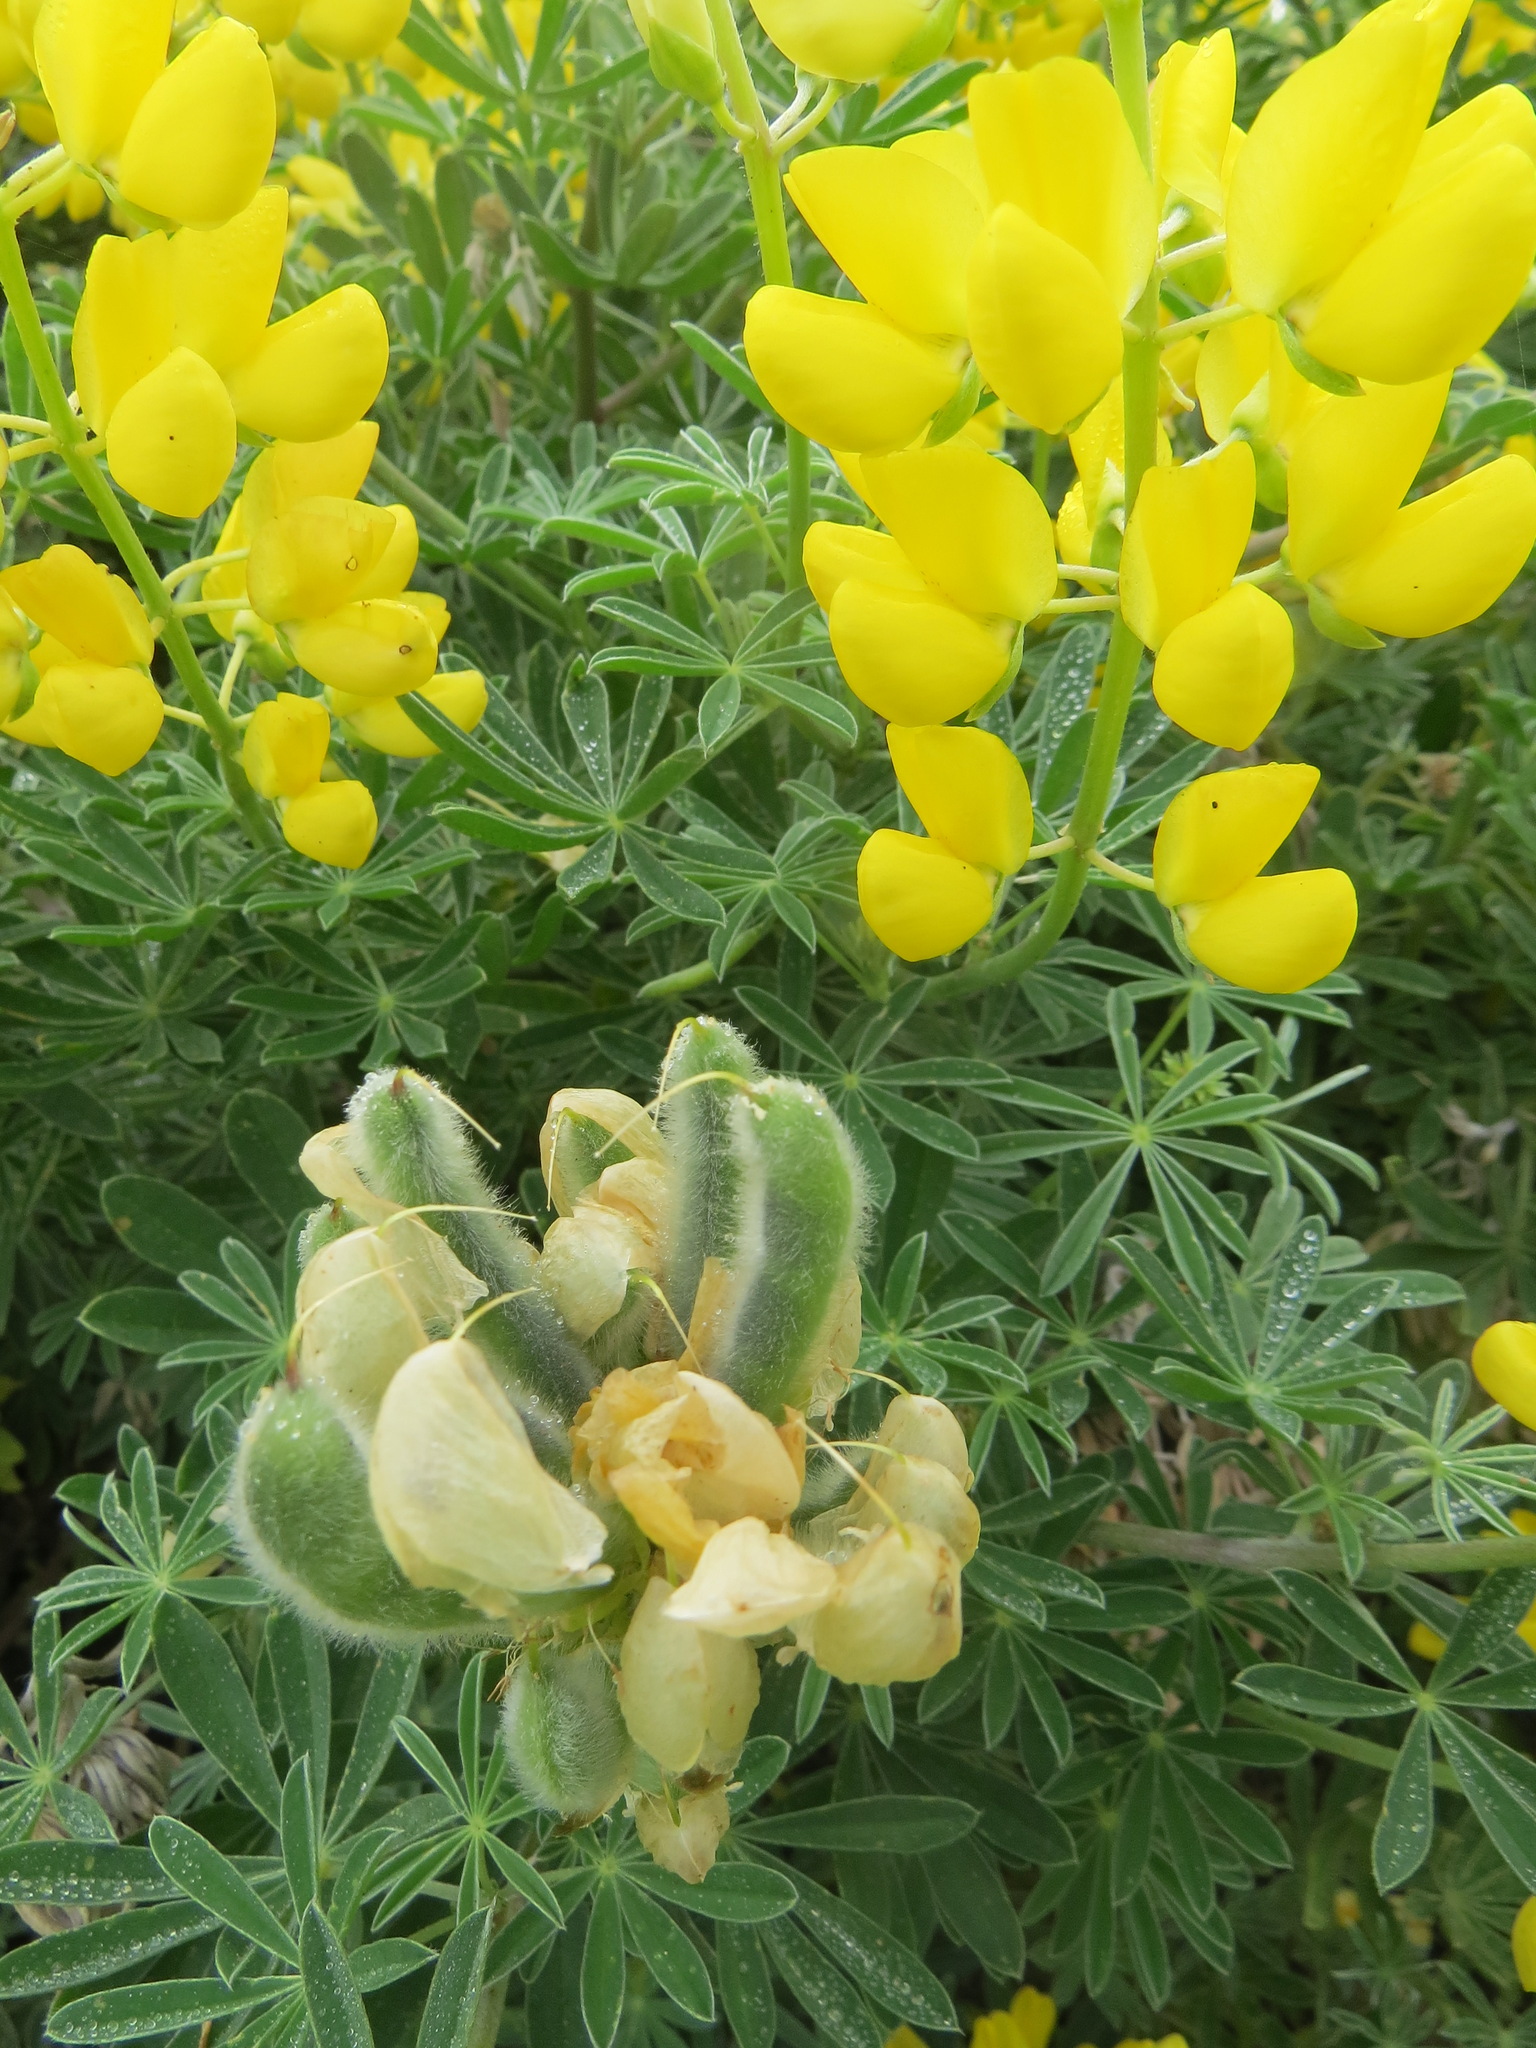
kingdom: Animalia
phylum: Arthropoda
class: Insecta
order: Diptera
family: Cecidomyiidae
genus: Dasineura
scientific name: Dasineura lupinorum
